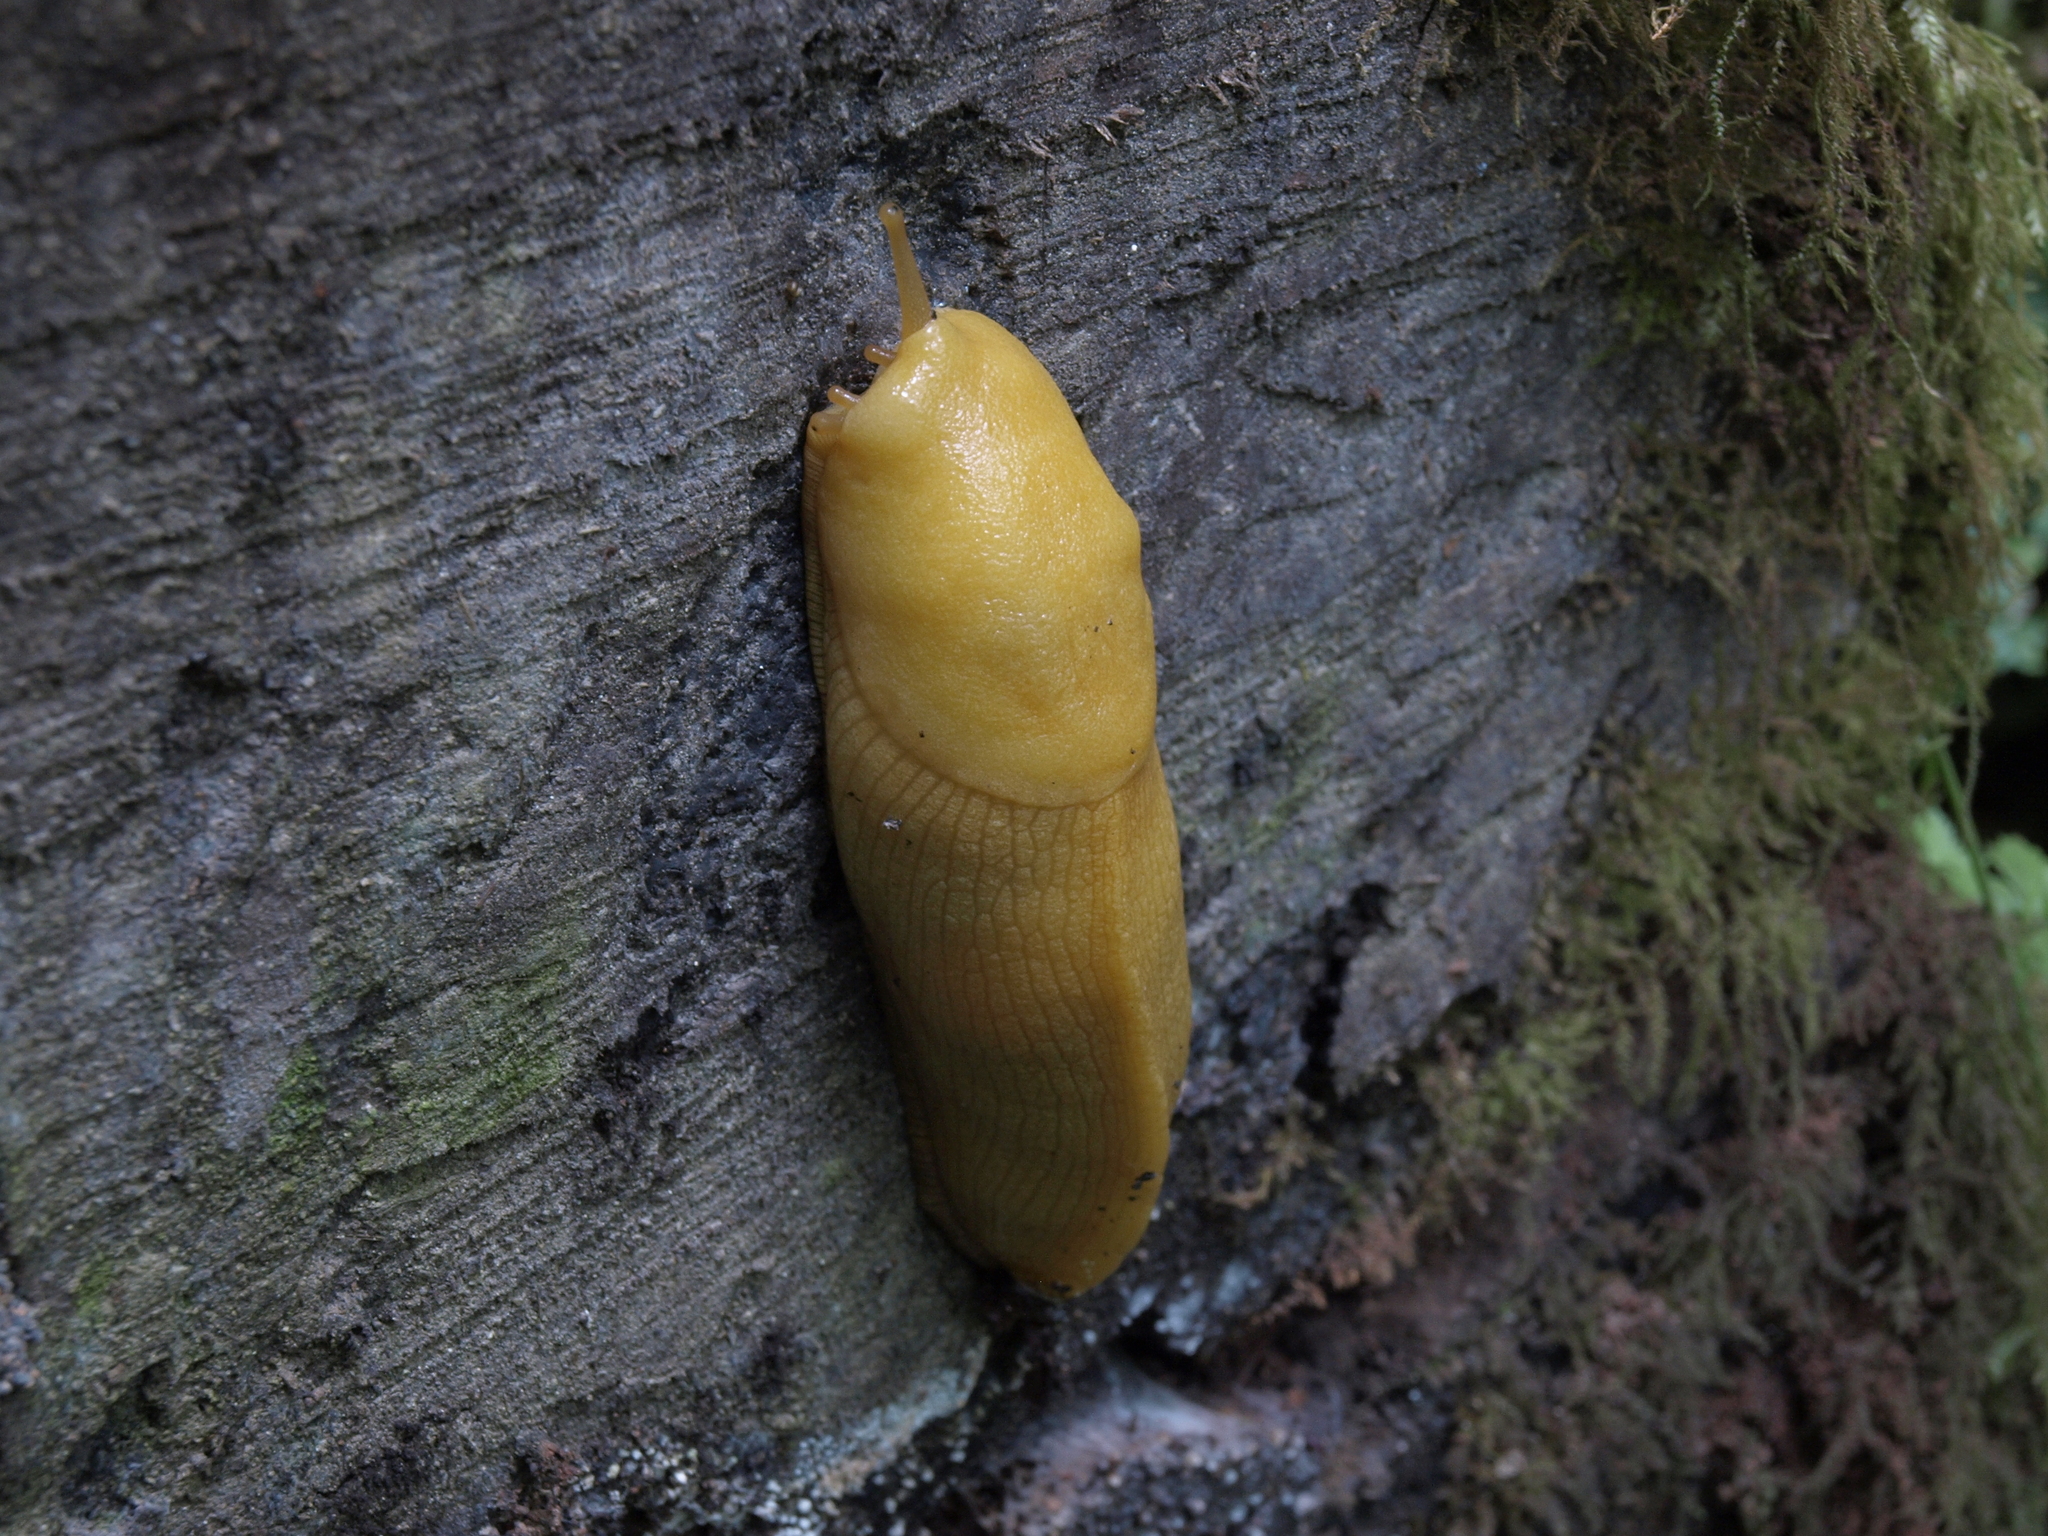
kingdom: Animalia
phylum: Mollusca
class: Gastropoda
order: Stylommatophora
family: Ariolimacidae
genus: Ariolimax
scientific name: Ariolimax columbianus
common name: Pacific banana slug
